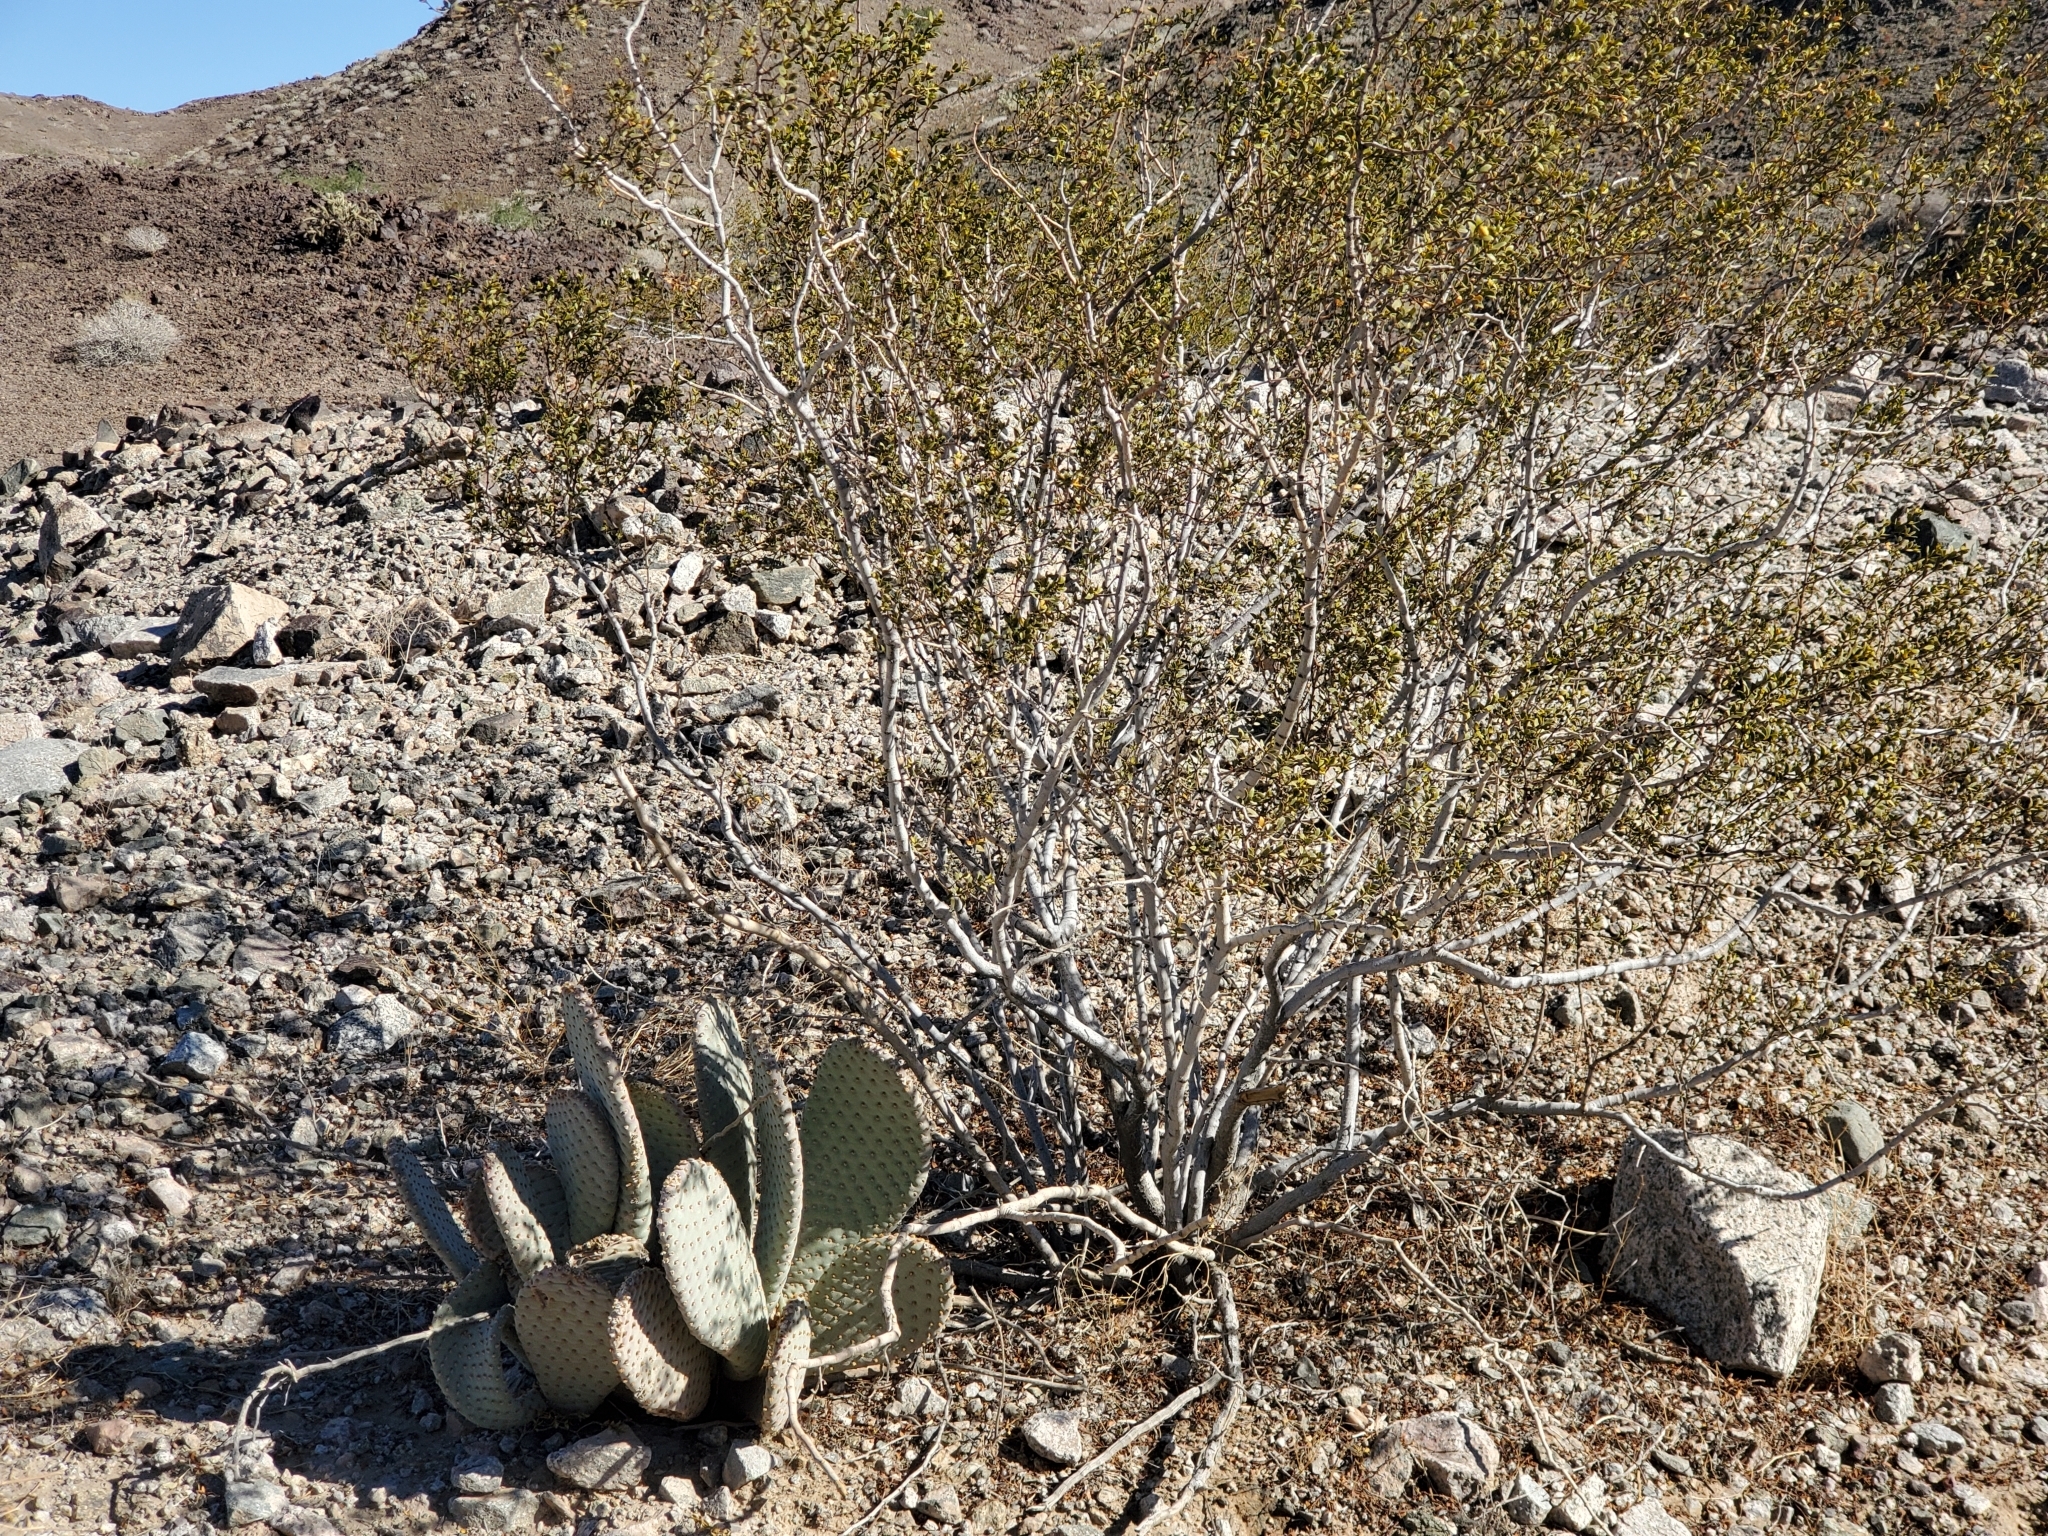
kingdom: Plantae
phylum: Tracheophyta
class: Magnoliopsida
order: Zygophyllales
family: Zygophyllaceae
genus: Larrea
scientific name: Larrea tridentata
